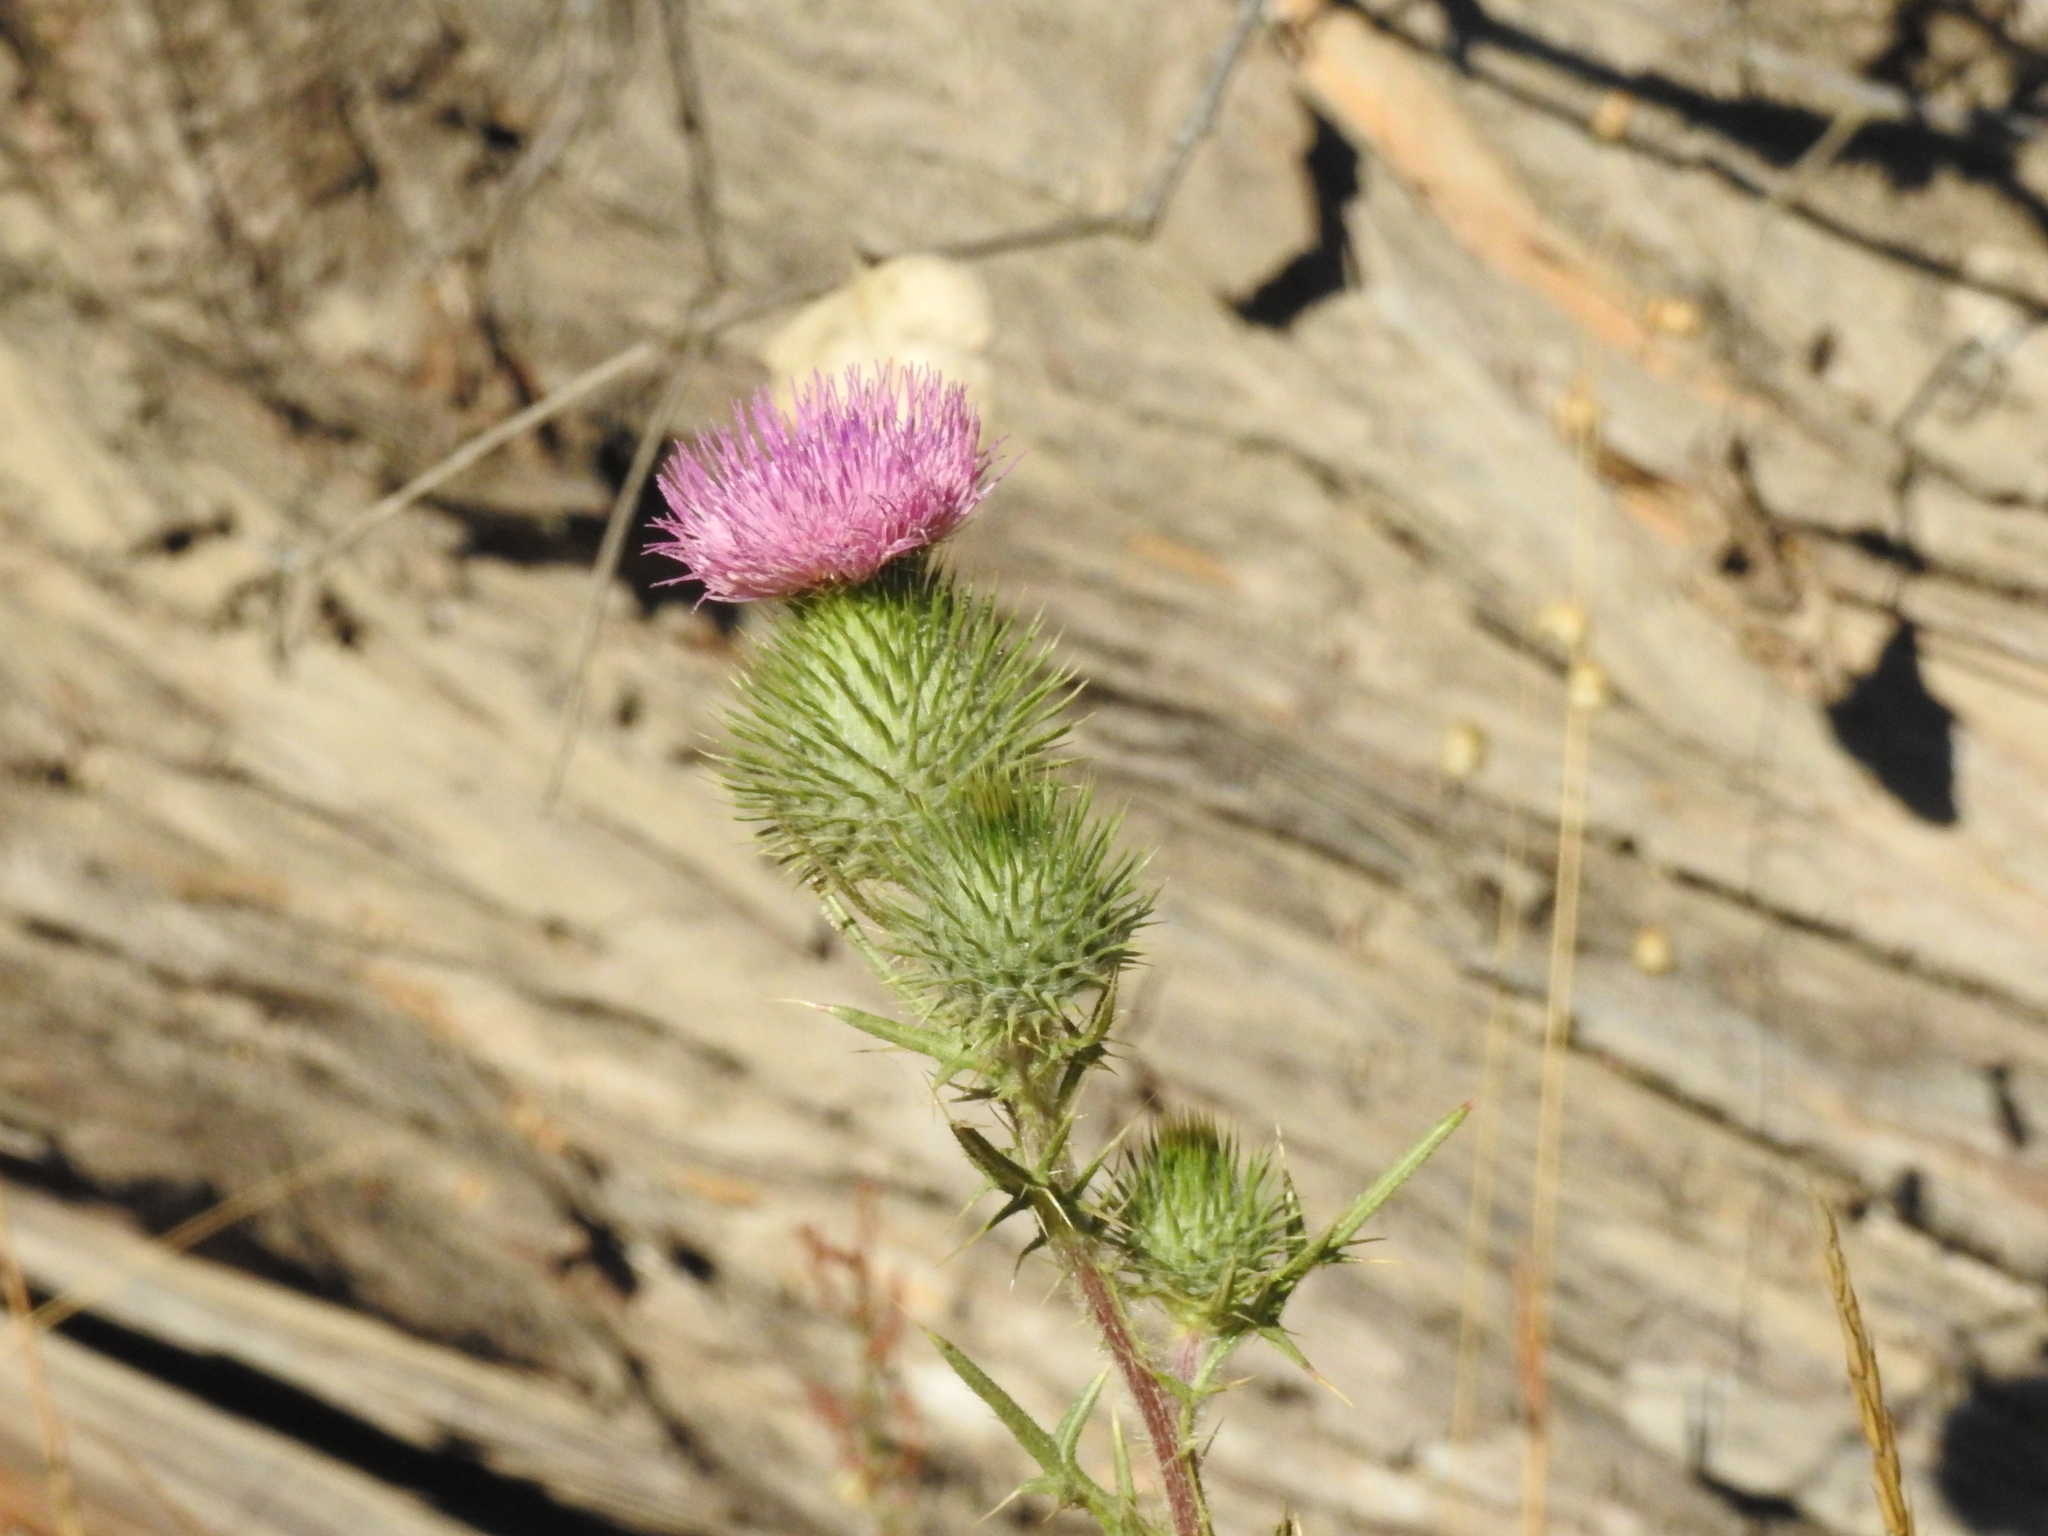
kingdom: Plantae
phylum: Tracheophyta
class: Magnoliopsida
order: Asterales
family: Asteraceae
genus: Cirsium
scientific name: Cirsium vulgare
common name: Bull thistle
